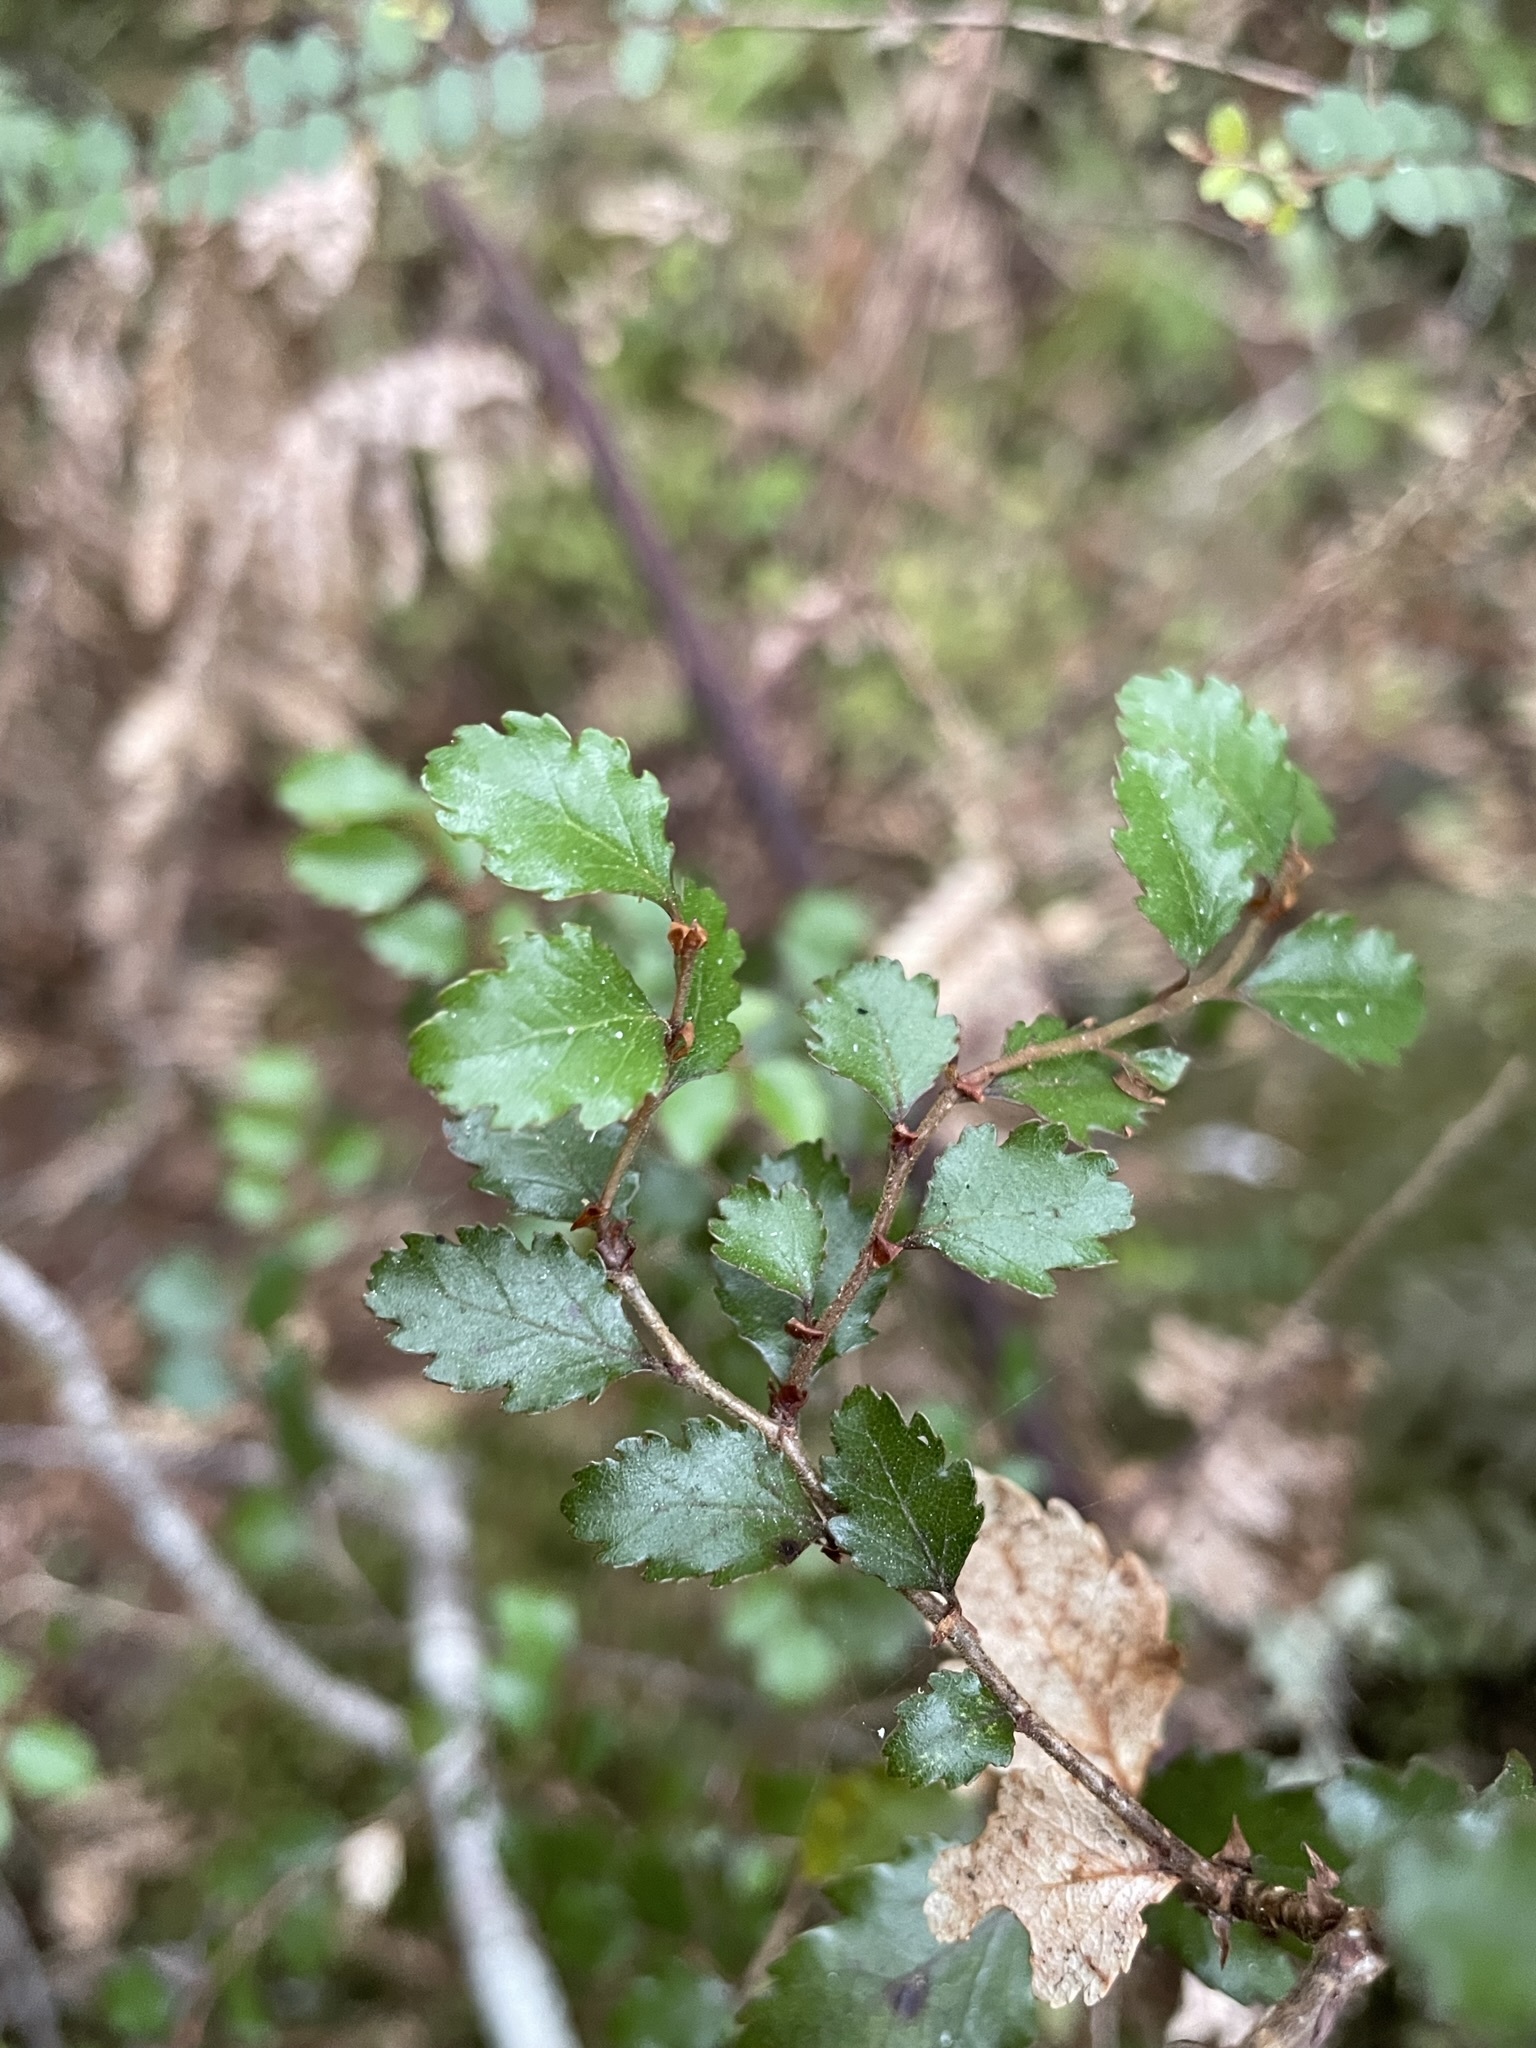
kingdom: Plantae
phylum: Tracheophyta
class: Magnoliopsida
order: Fagales
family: Nothofagaceae
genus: Nothofagus
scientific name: Nothofagus menziesii
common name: Silver beech
